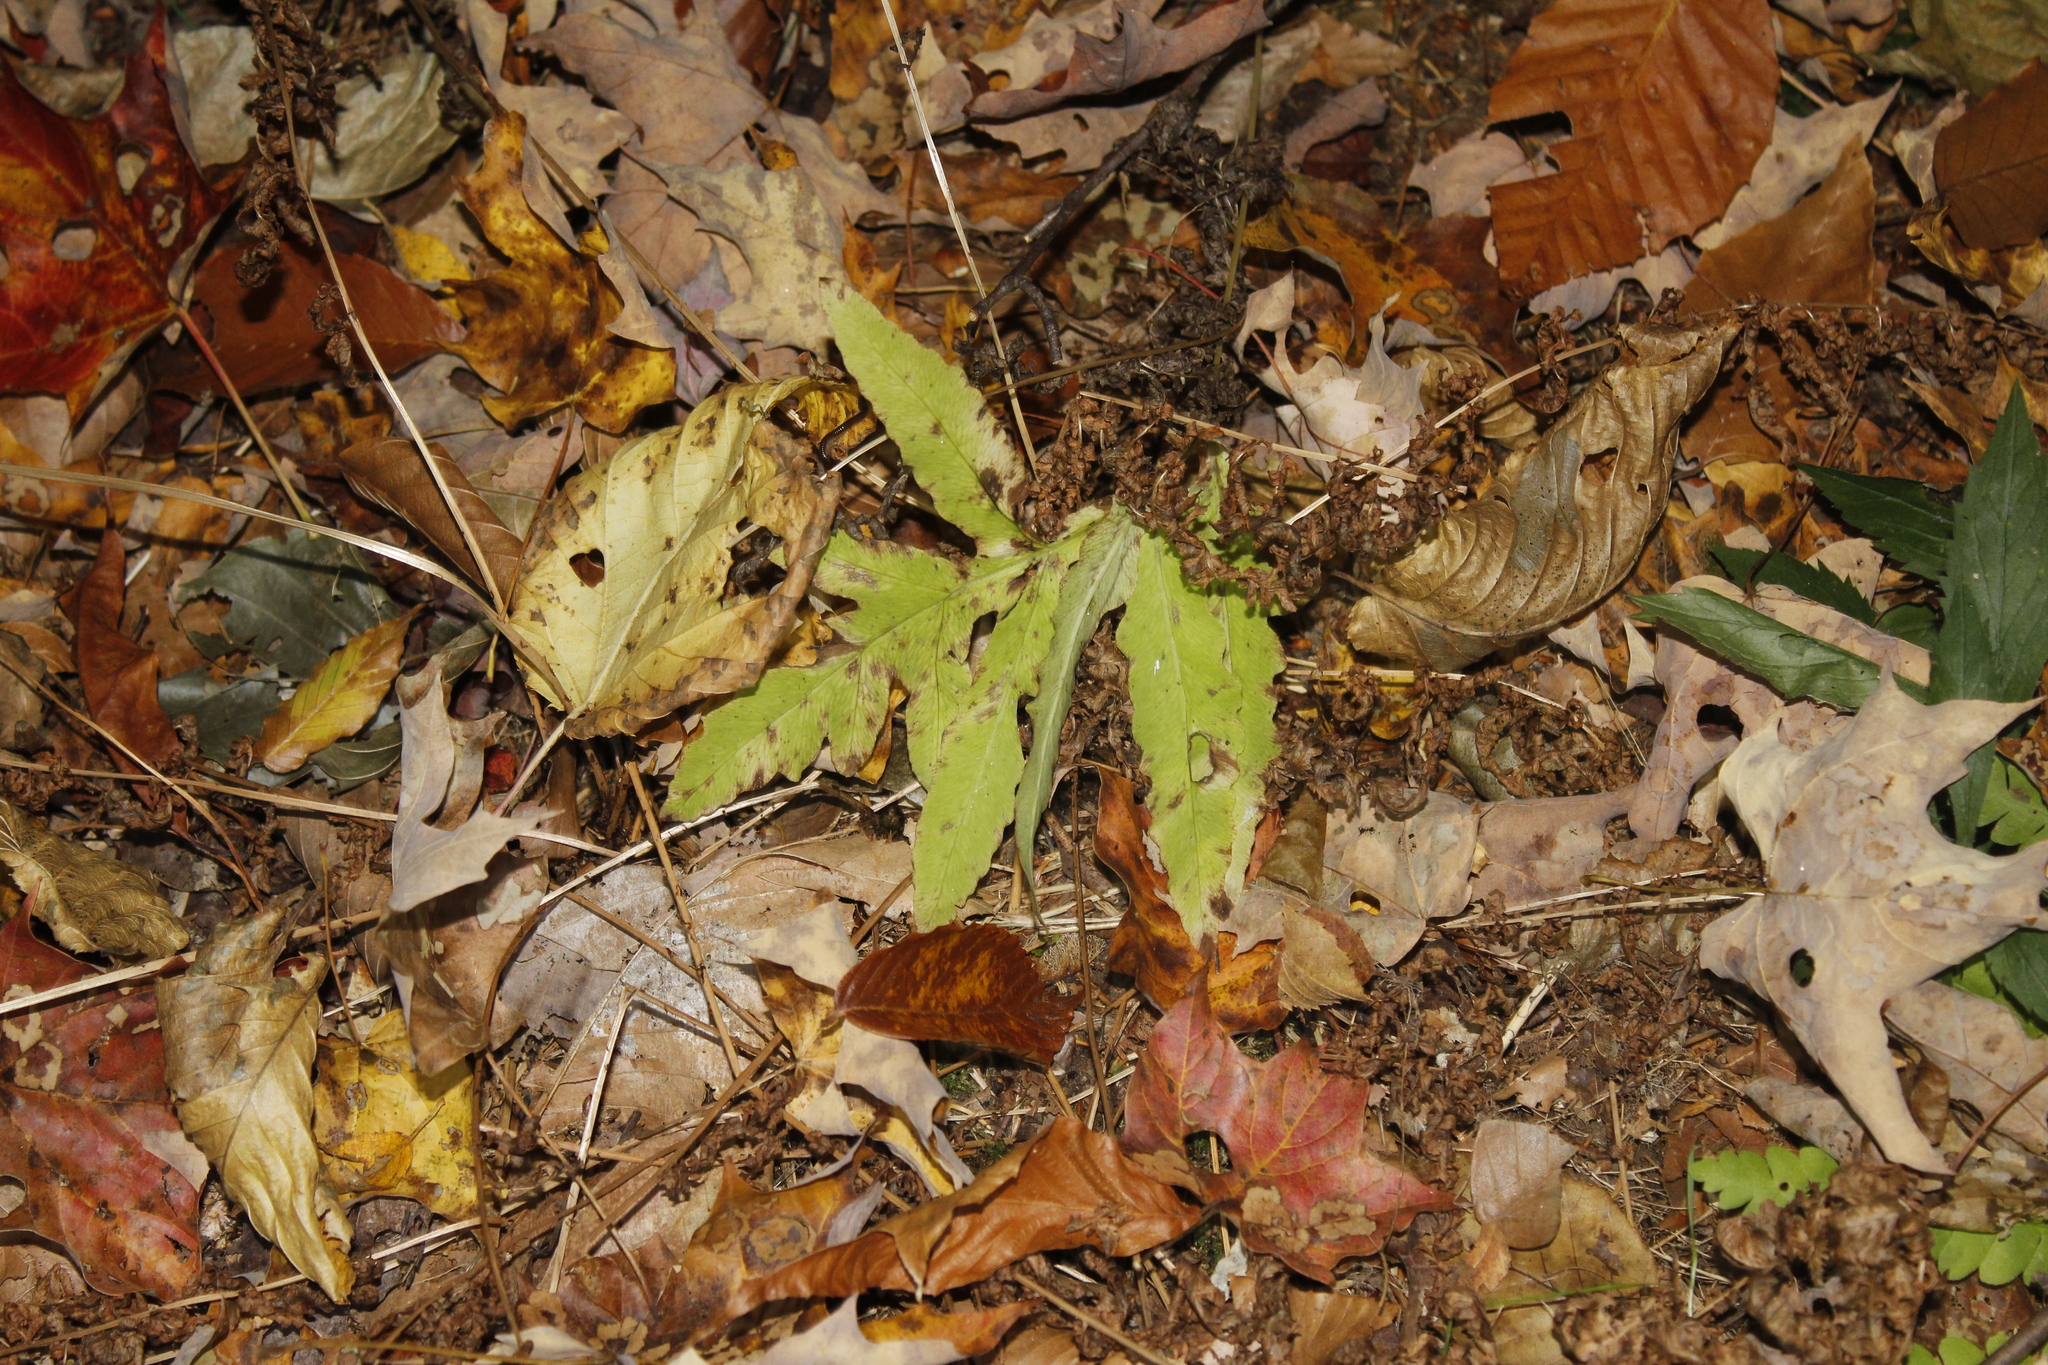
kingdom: Plantae
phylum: Tracheophyta
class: Polypodiopsida
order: Polypodiales
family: Onocleaceae
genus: Onoclea
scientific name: Onoclea sensibilis
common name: Sensitive fern
